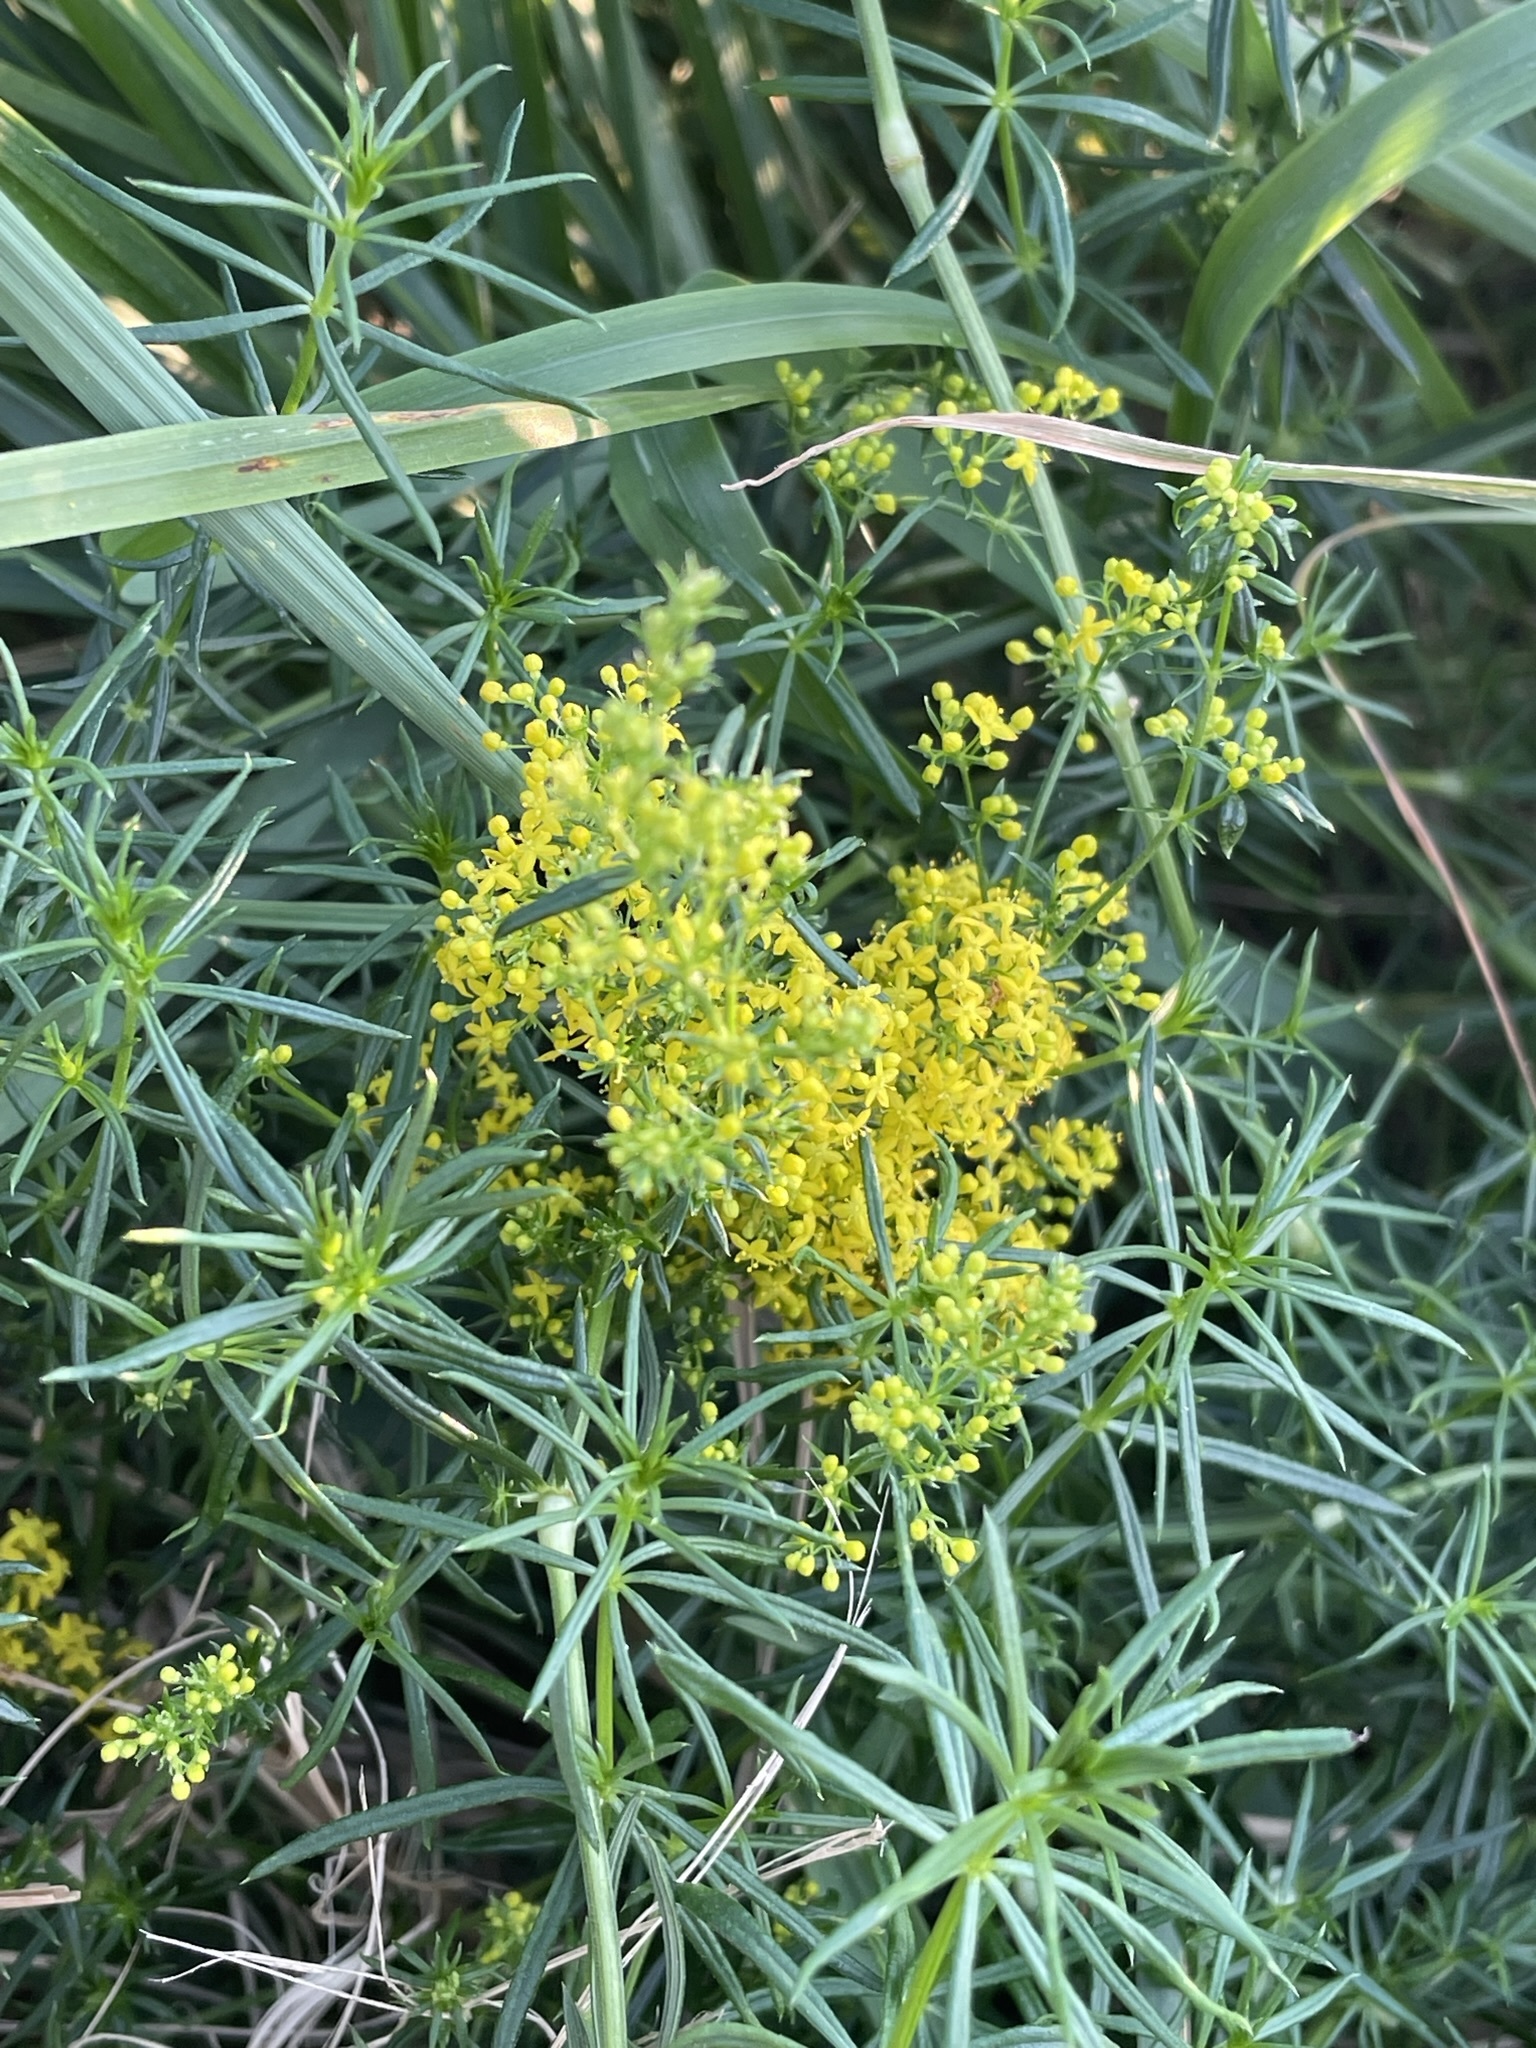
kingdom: Plantae
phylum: Tracheophyta
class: Magnoliopsida
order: Gentianales
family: Rubiaceae
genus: Galium
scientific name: Galium verum
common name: Lady's bedstraw
